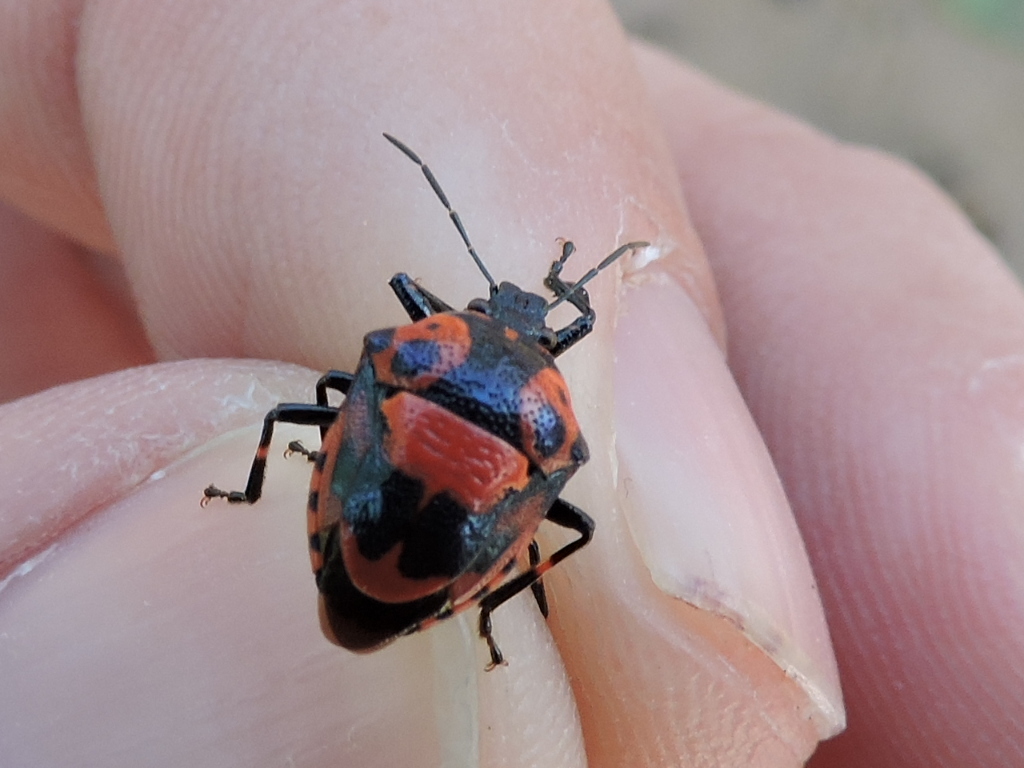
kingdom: Animalia
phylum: Arthropoda
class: Insecta
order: Hemiptera
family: Pentatomidae
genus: Stiretrus
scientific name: Stiretrus anchorago
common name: Anchor stink bug
